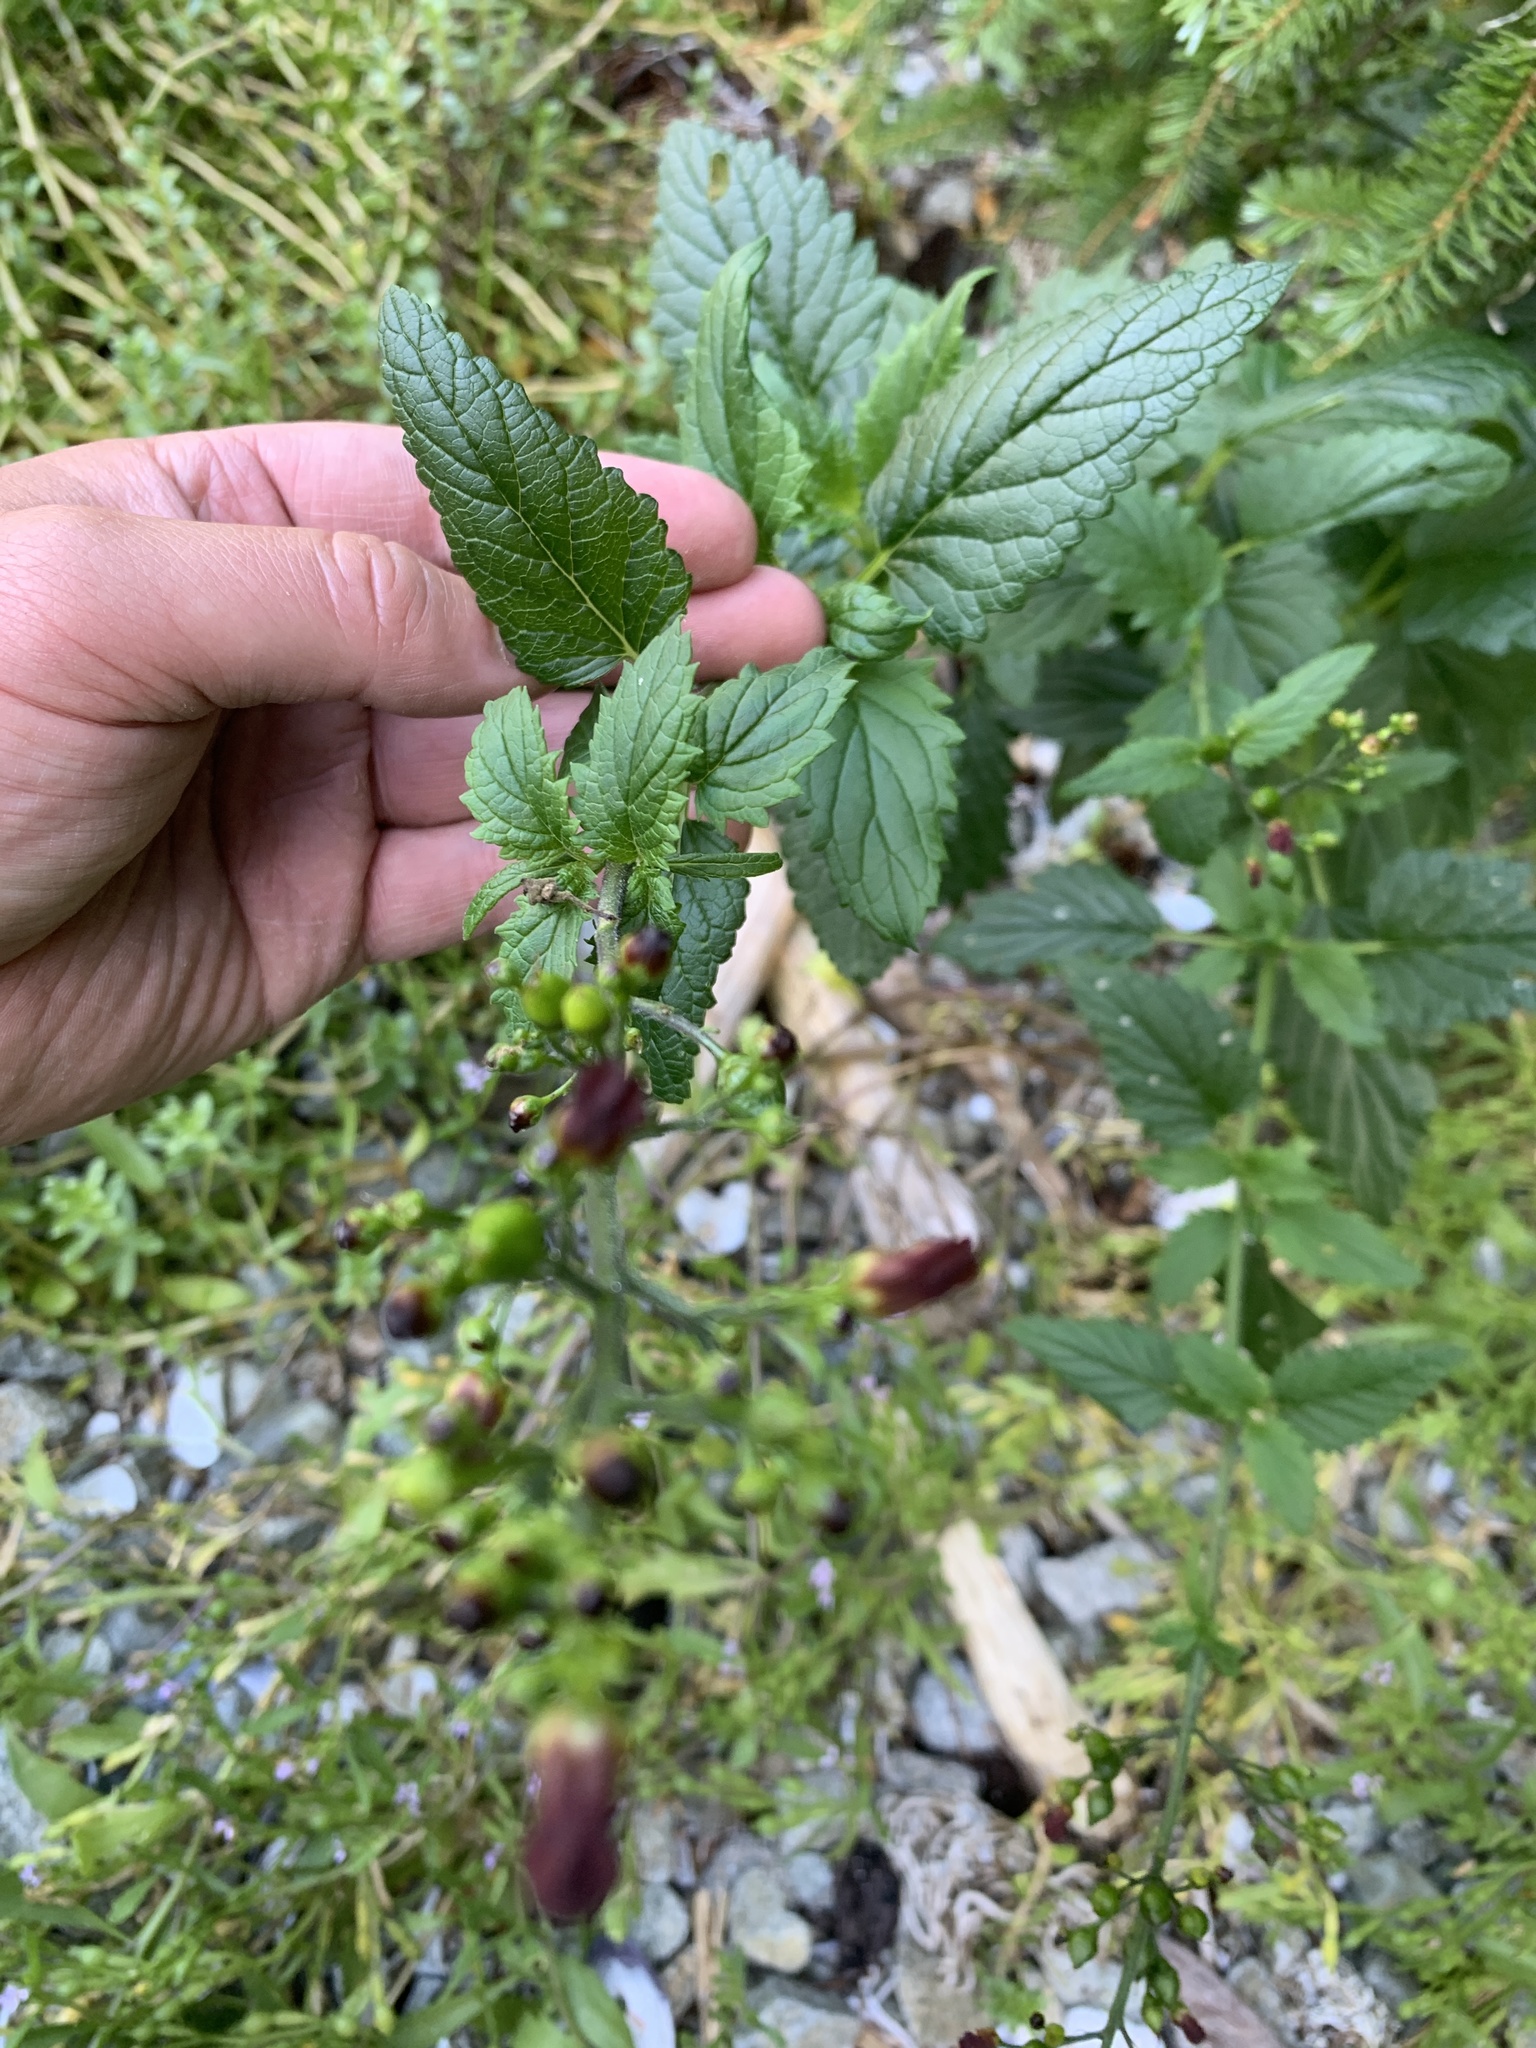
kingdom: Plantae
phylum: Tracheophyta
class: Magnoliopsida
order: Lamiales
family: Scrophulariaceae
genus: Scrophularia
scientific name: Scrophularia californica
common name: California figwort
